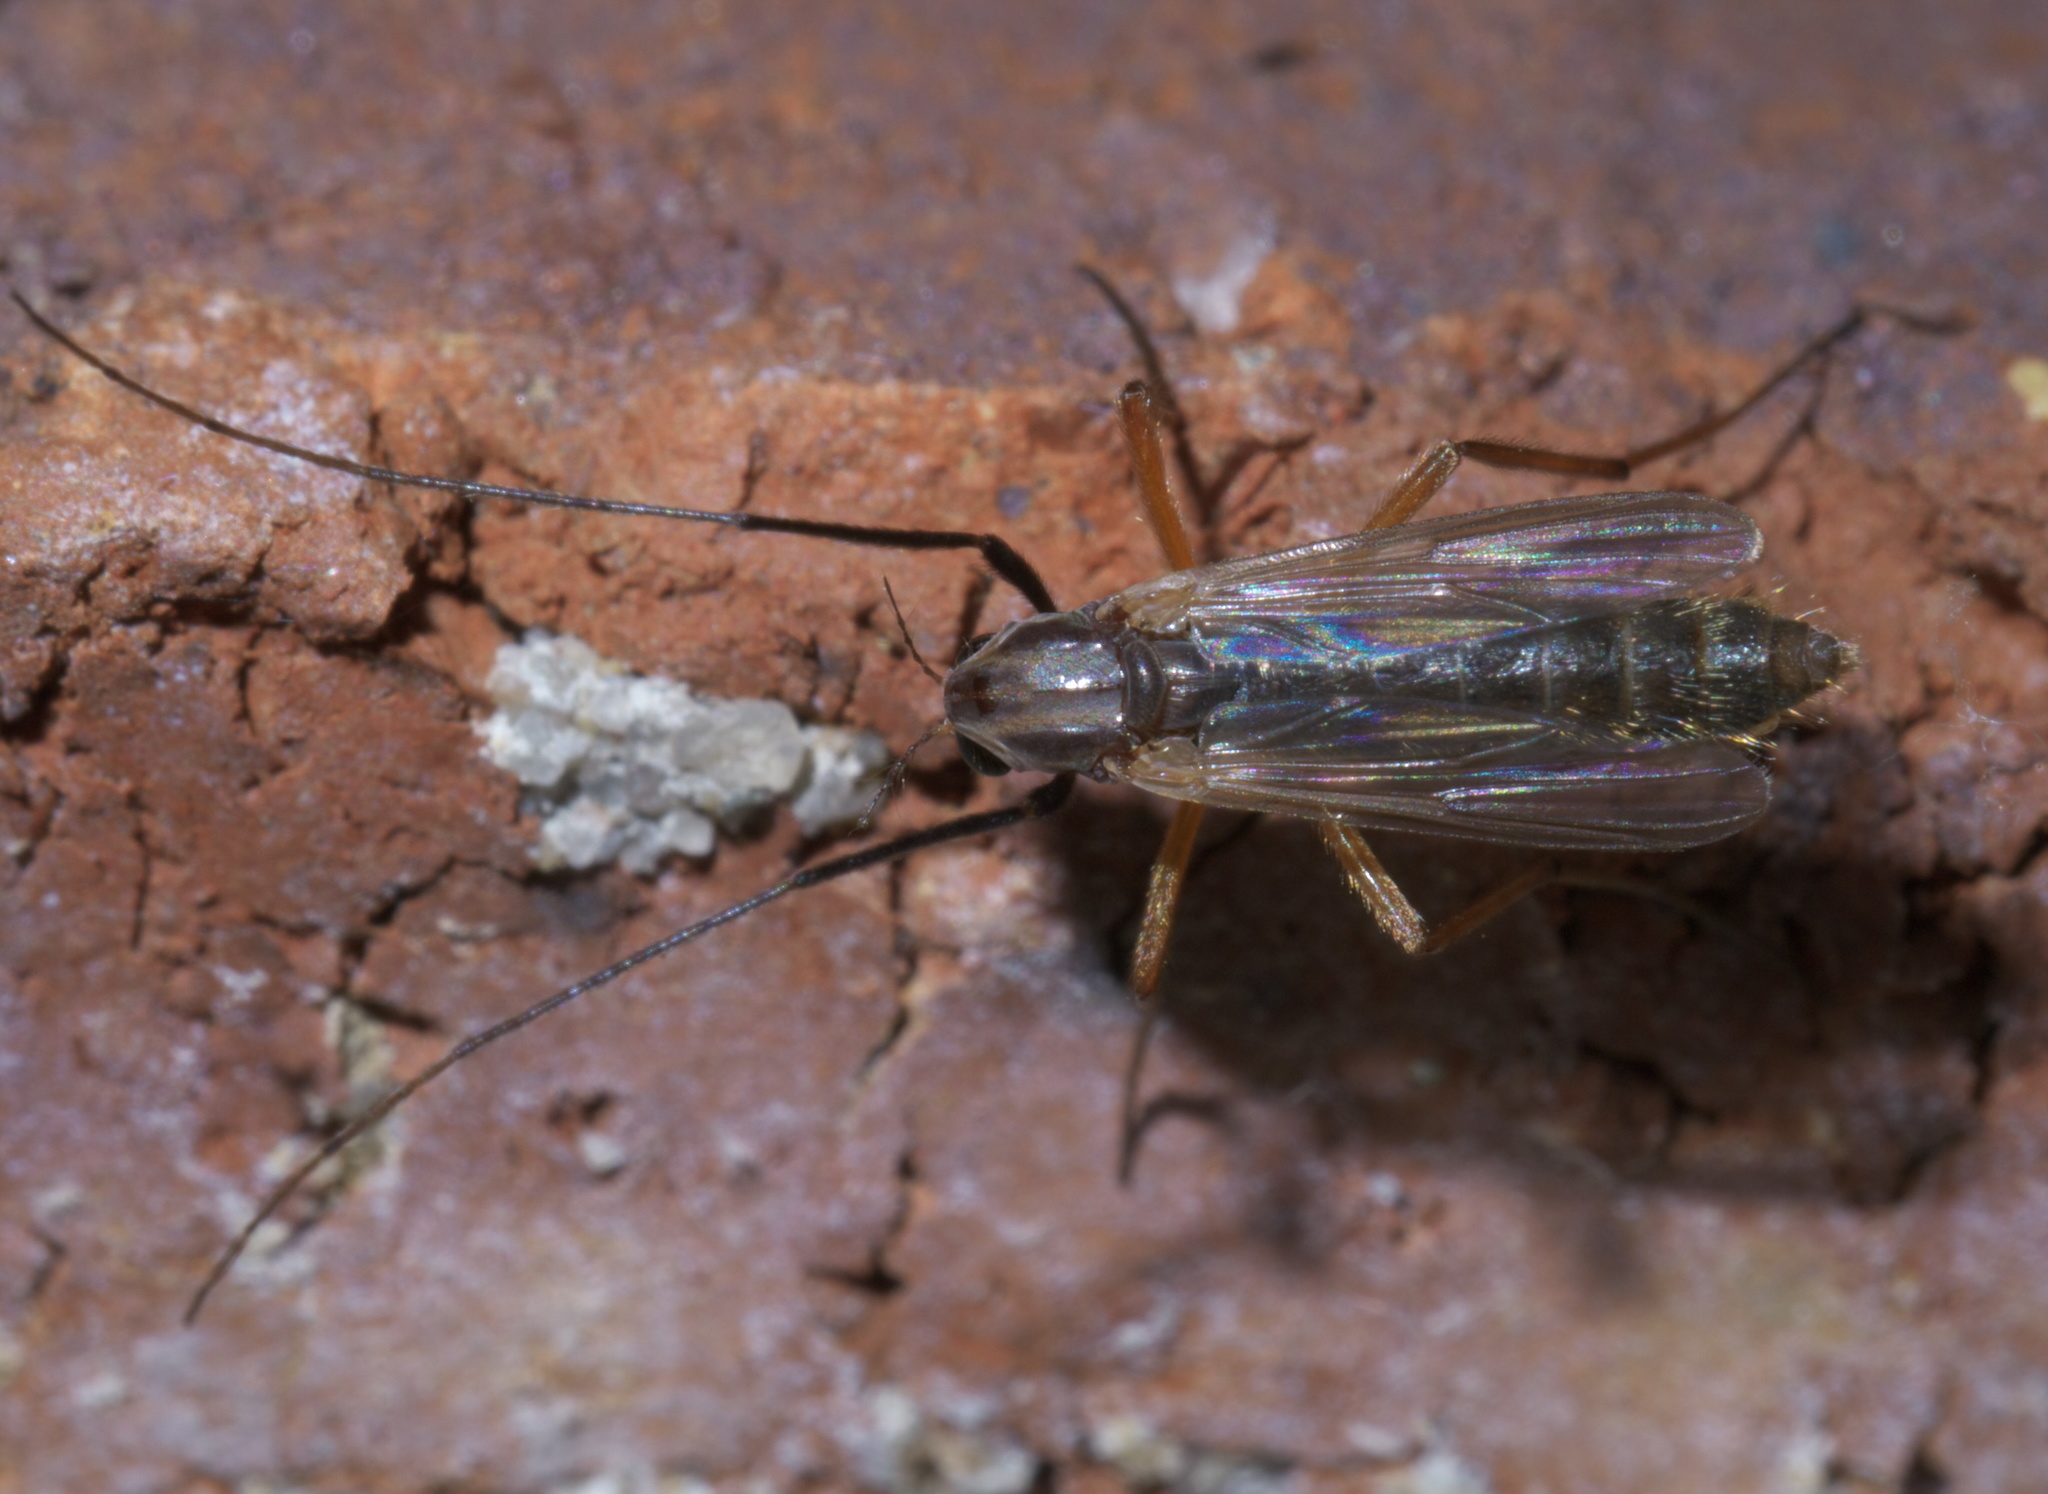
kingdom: Animalia
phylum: Arthropoda
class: Insecta
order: Diptera
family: Chironomidae
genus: Glyptotendipes
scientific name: Glyptotendipes testaceus
